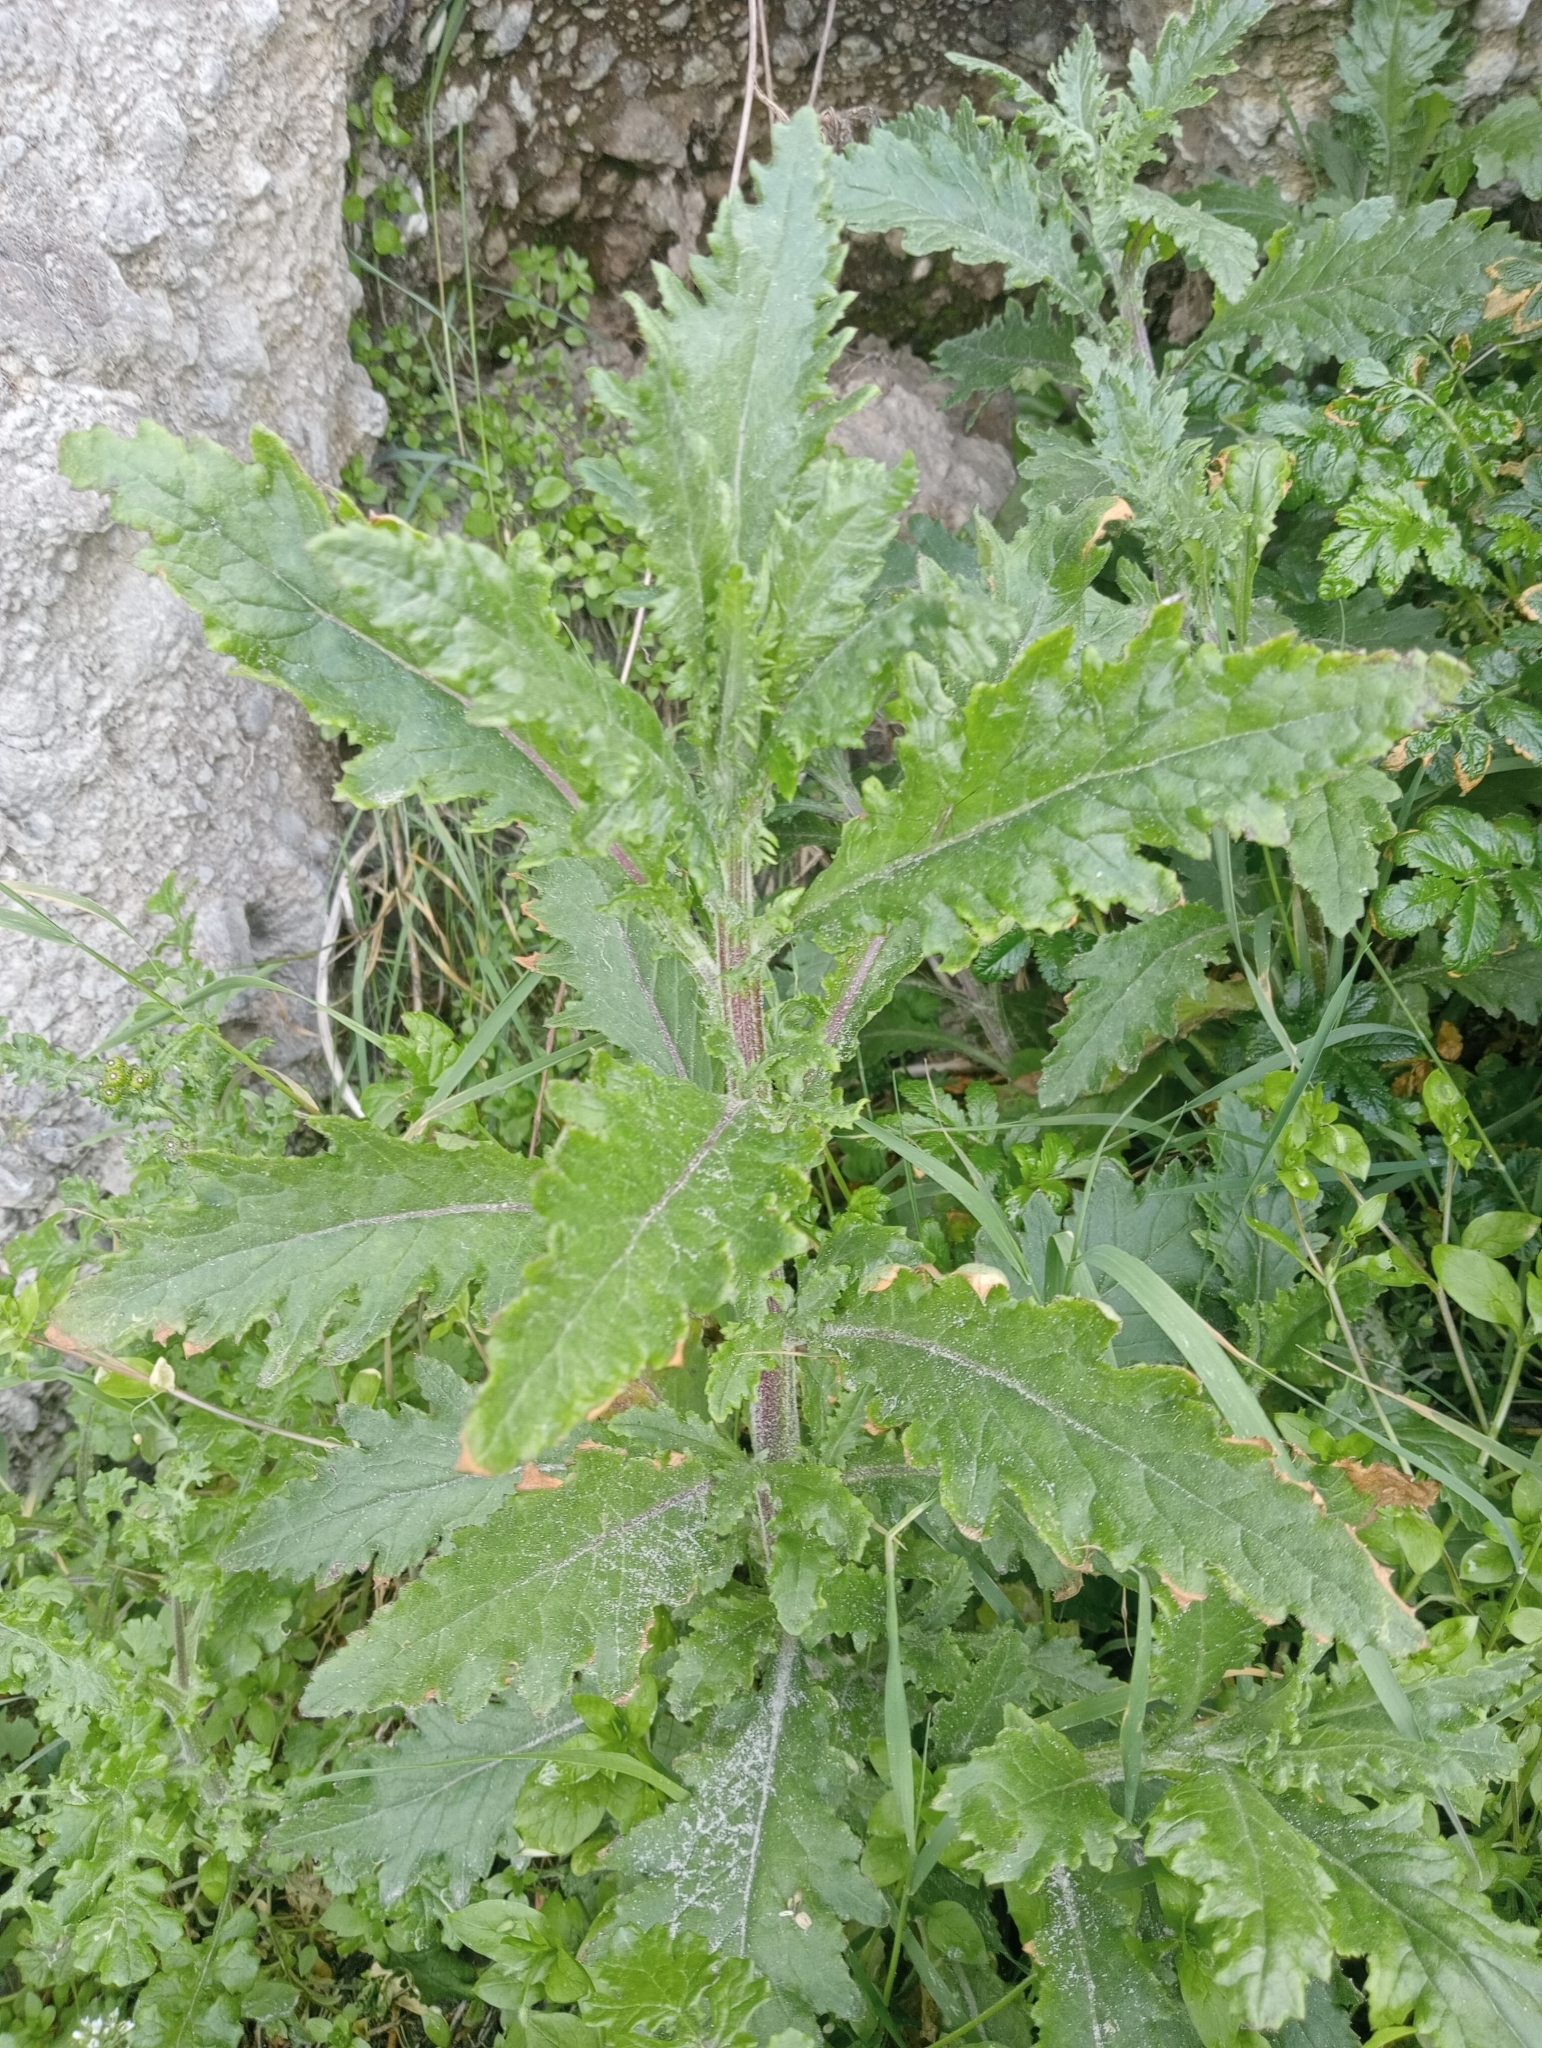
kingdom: Plantae
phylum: Tracheophyta
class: Magnoliopsida
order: Asterales
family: Asteraceae
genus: Senecio
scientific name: Senecio biserratus
